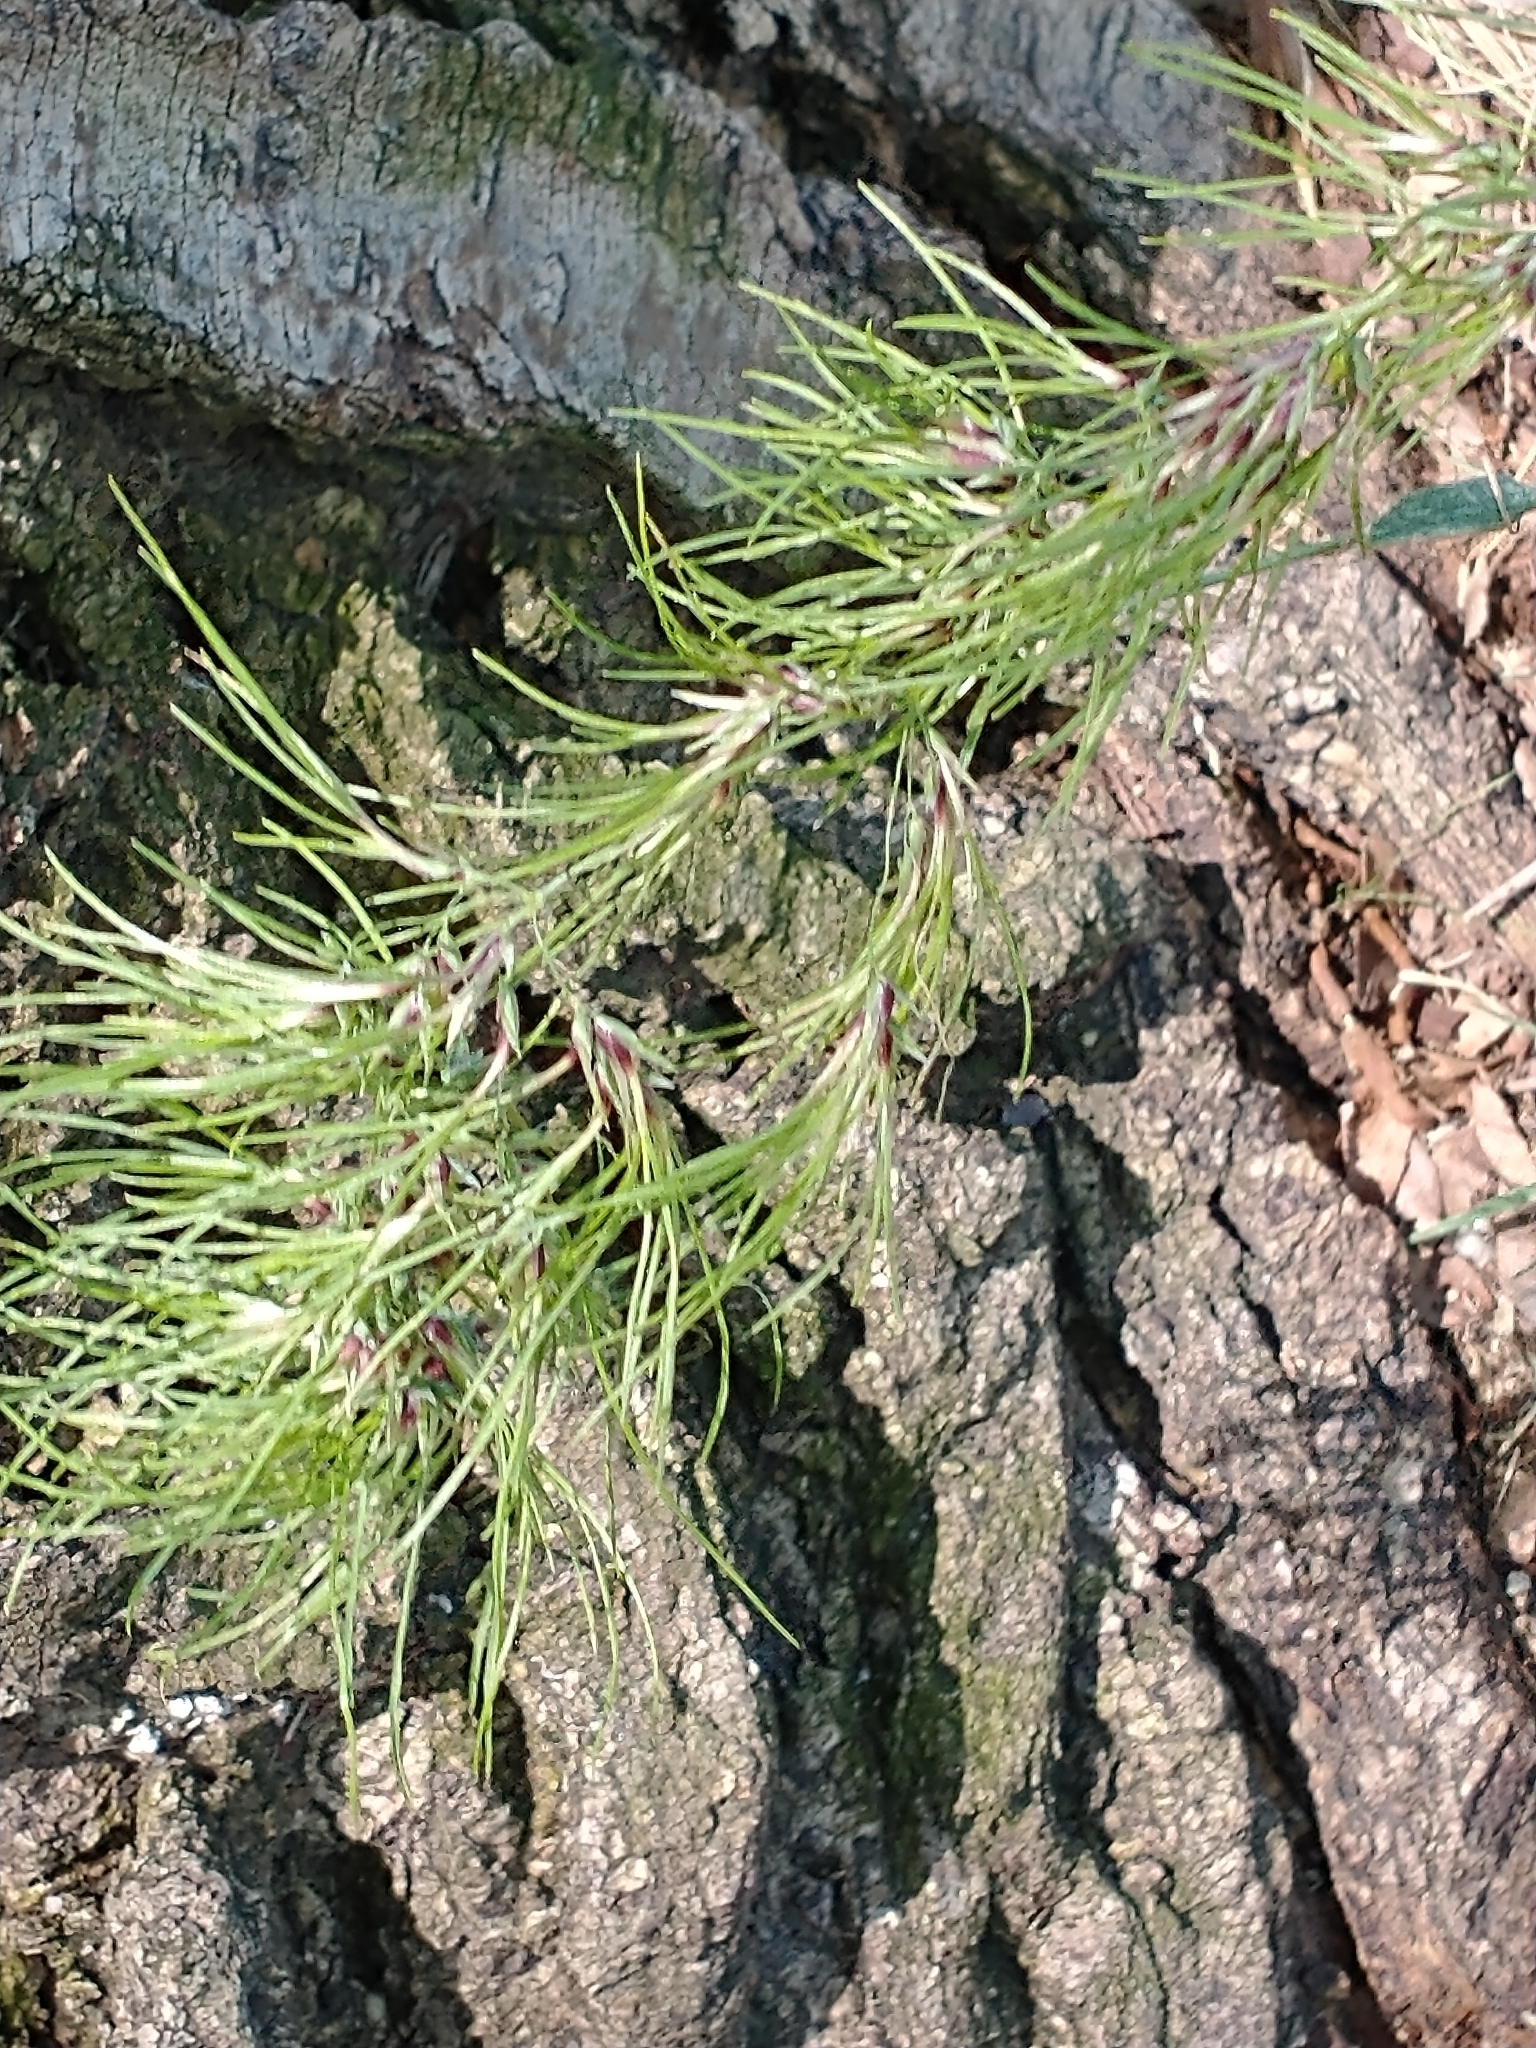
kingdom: Plantae
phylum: Tracheophyta
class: Liliopsida
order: Poales
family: Poaceae
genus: Poa
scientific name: Poa bulbosa
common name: Bulbous bluegrass
